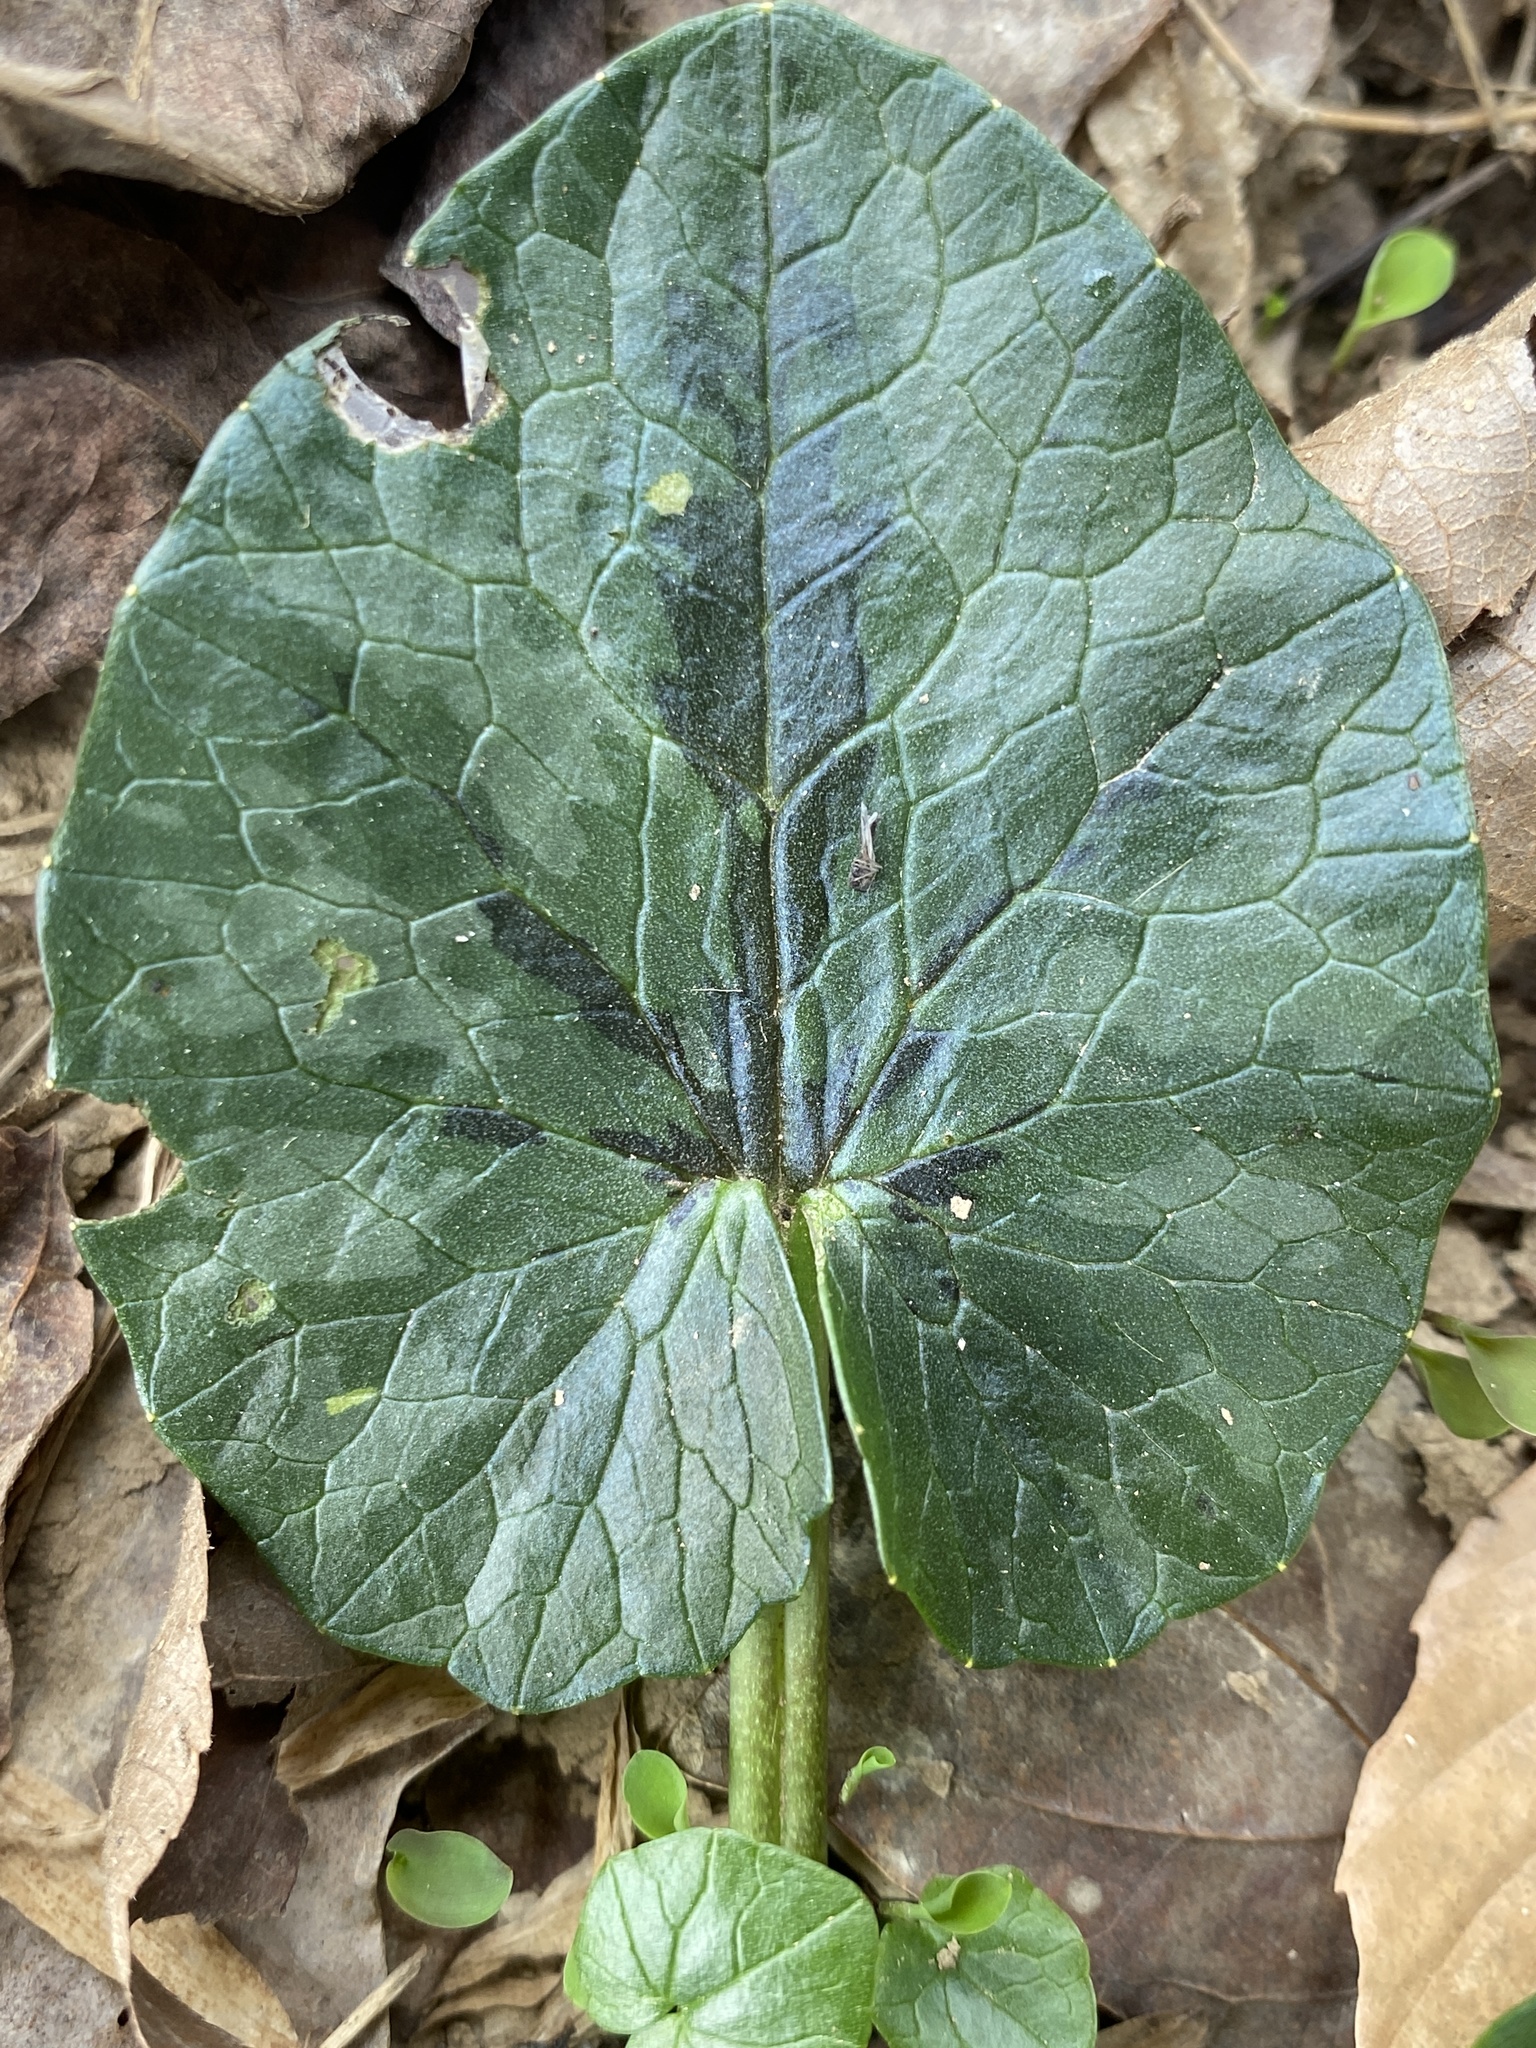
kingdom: Plantae
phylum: Tracheophyta
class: Magnoliopsida
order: Ranunculales
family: Ranunculaceae
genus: Ficaria
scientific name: Ficaria verna
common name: Lesser celandine
